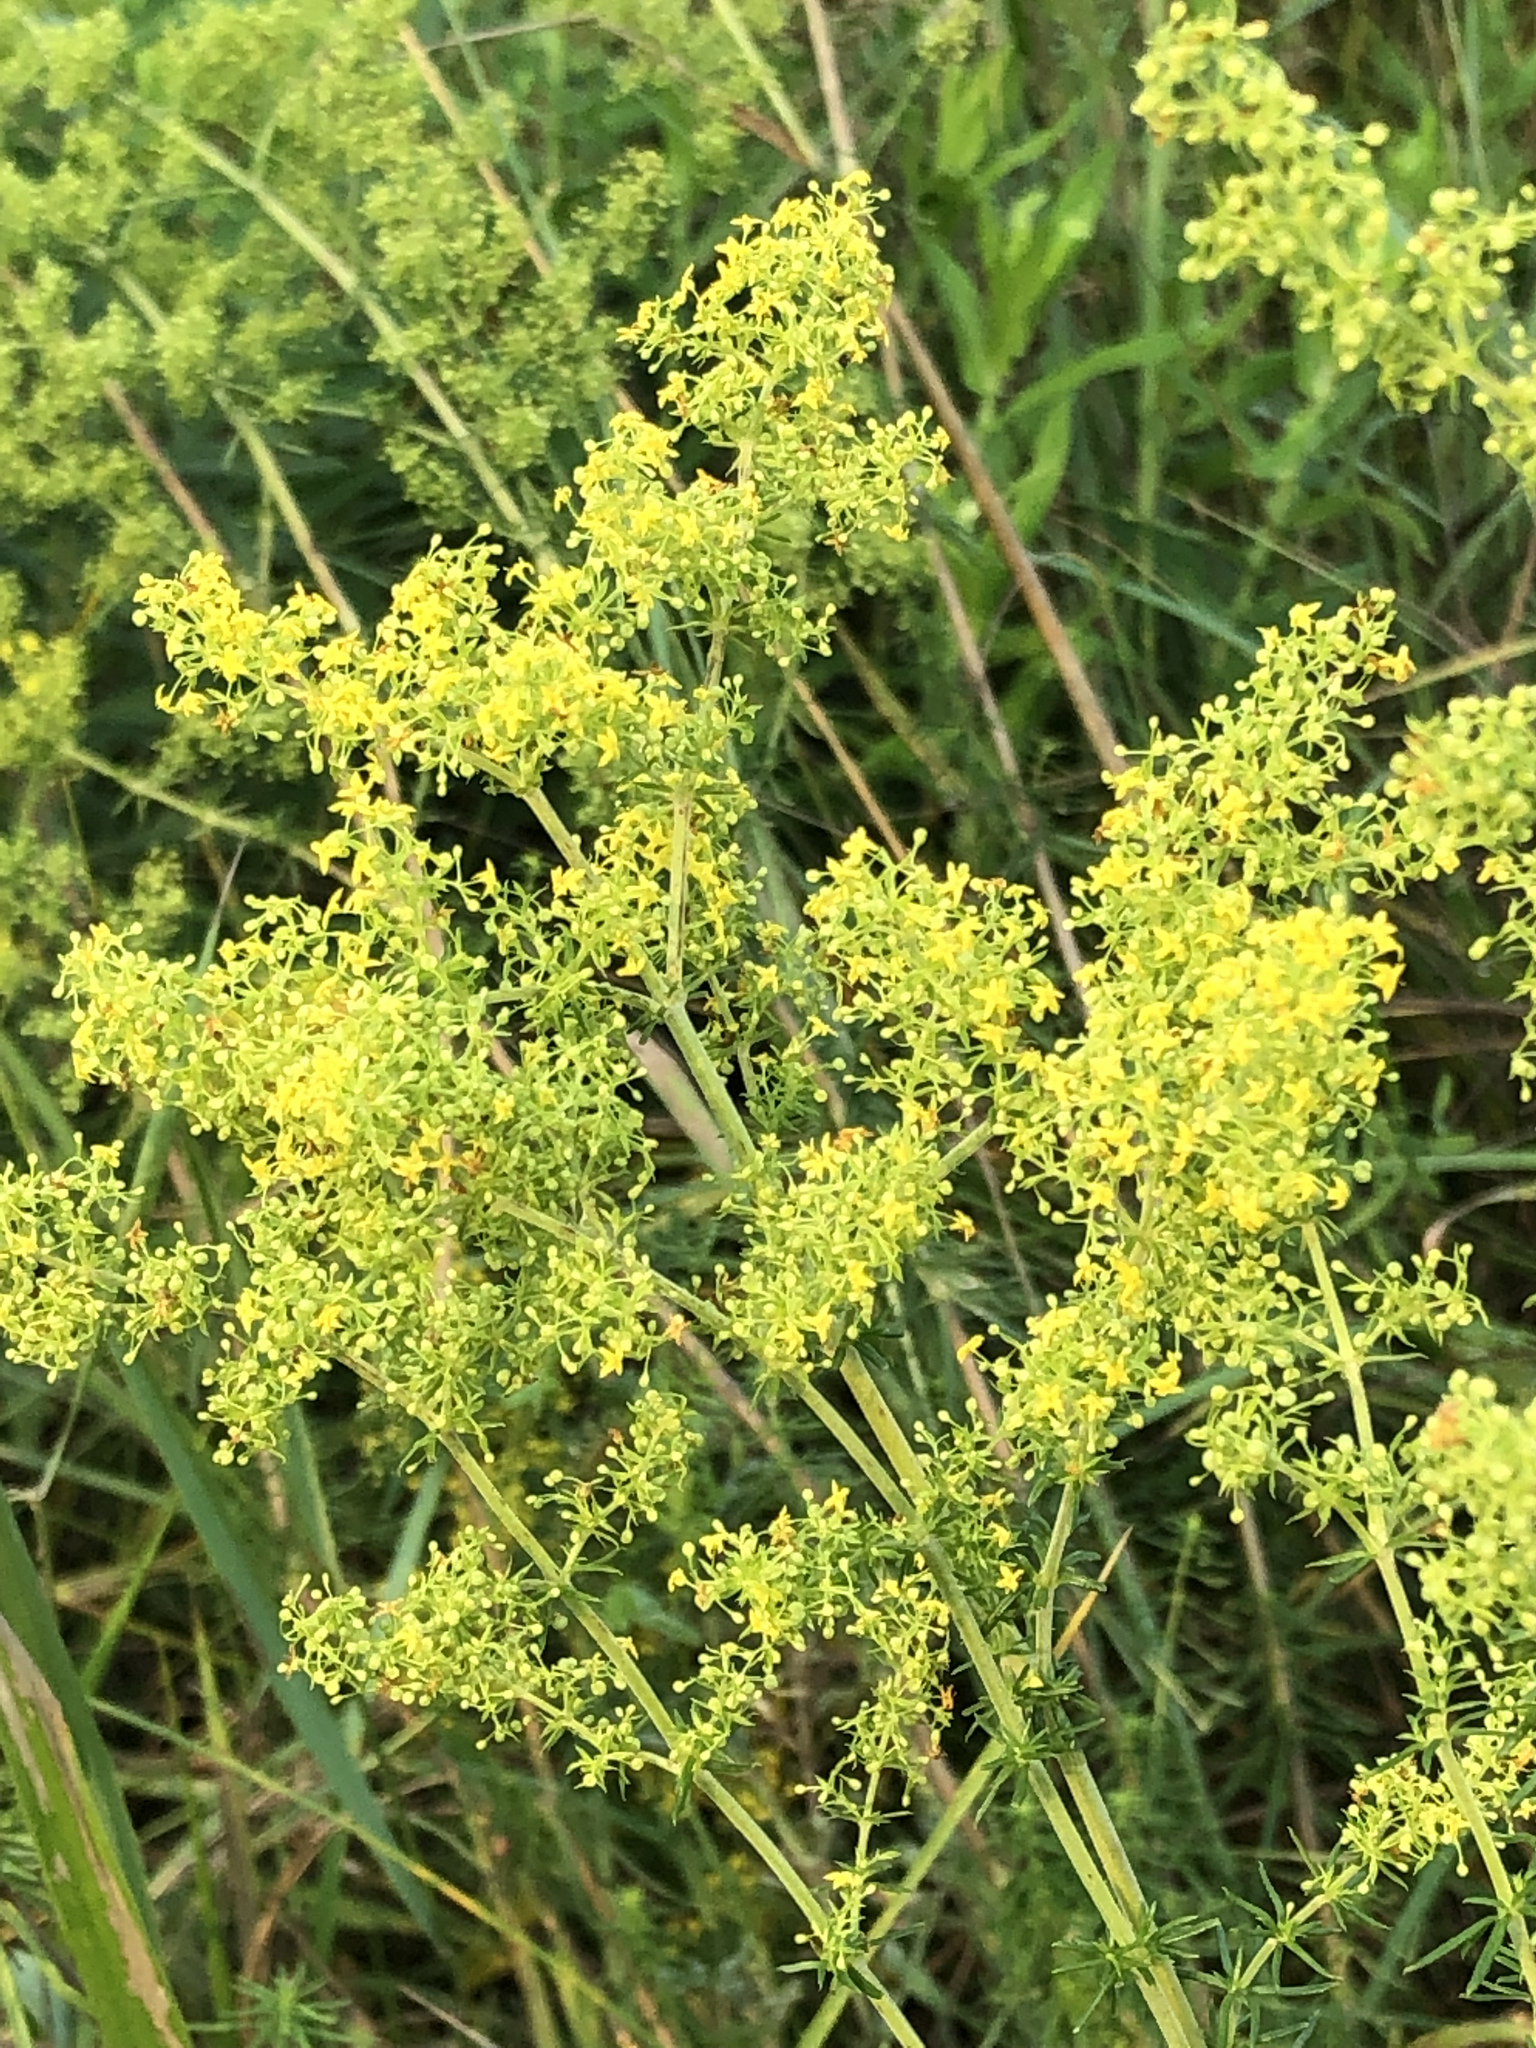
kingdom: Plantae
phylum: Tracheophyta
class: Magnoliopsida
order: Gentianales
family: Rubiaceae
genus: Galium
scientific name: Galium verum
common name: Lady's bedstraw
